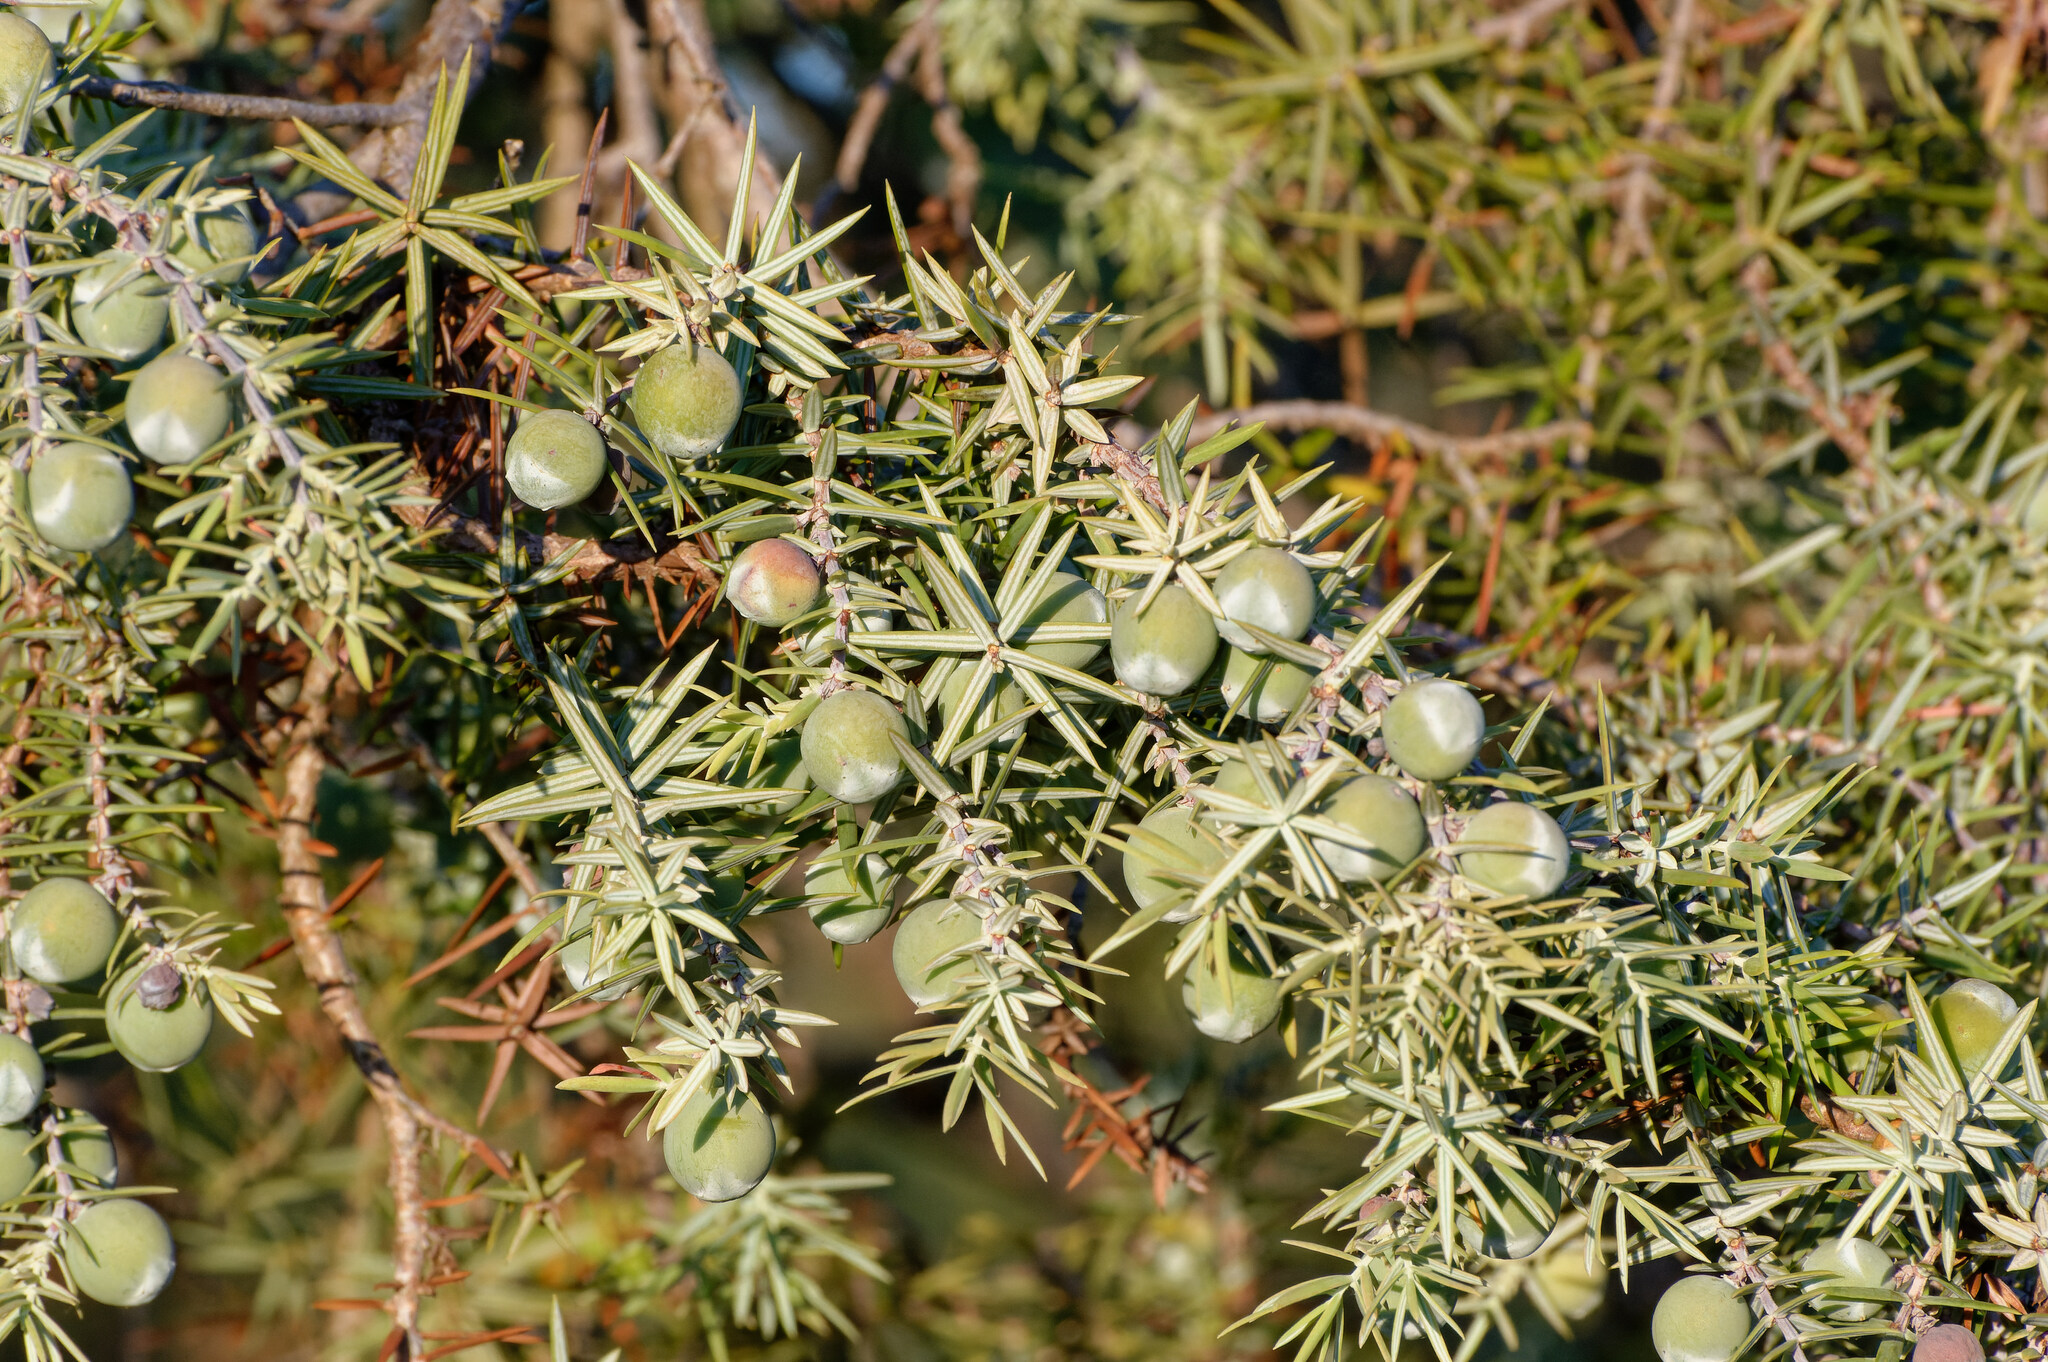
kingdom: Plantae
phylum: Tracheophyta
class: Pinopsida
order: Pinales
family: Cupressaceae
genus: Juniperus
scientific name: Juniperus oxycedrus
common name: Prickly juniper
